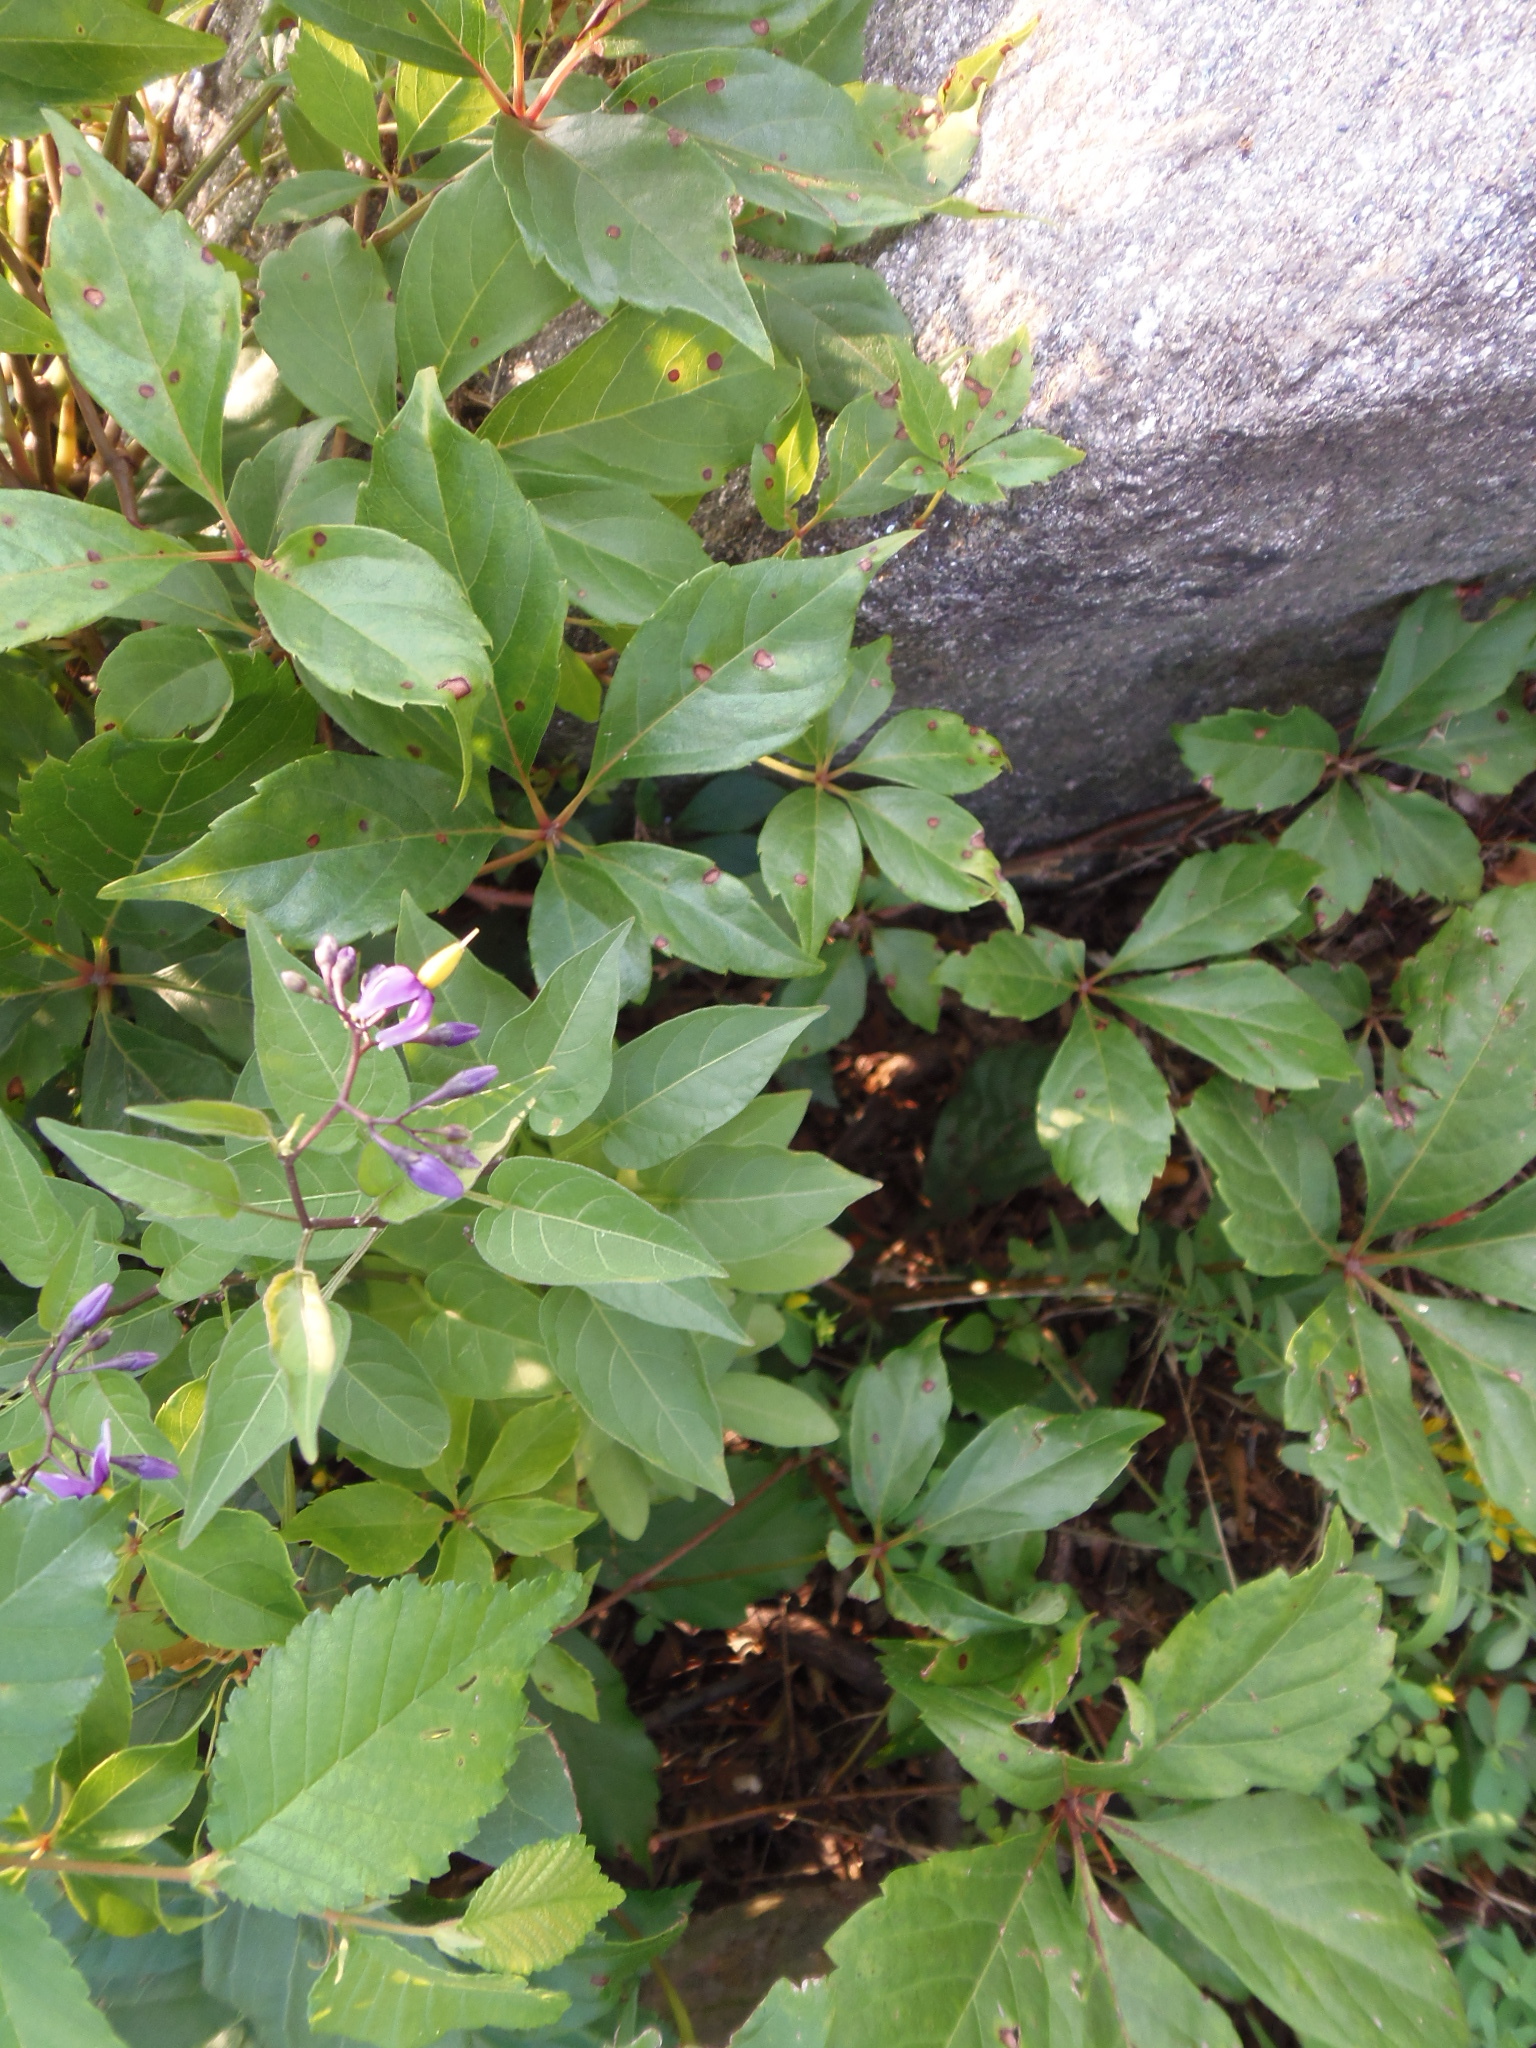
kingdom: Plantae
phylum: Tracheophyta
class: Magnoliopsida
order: Solanales
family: Solanaceae
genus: Solanum
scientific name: Solanum dulcamara
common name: Climbing nightshade
